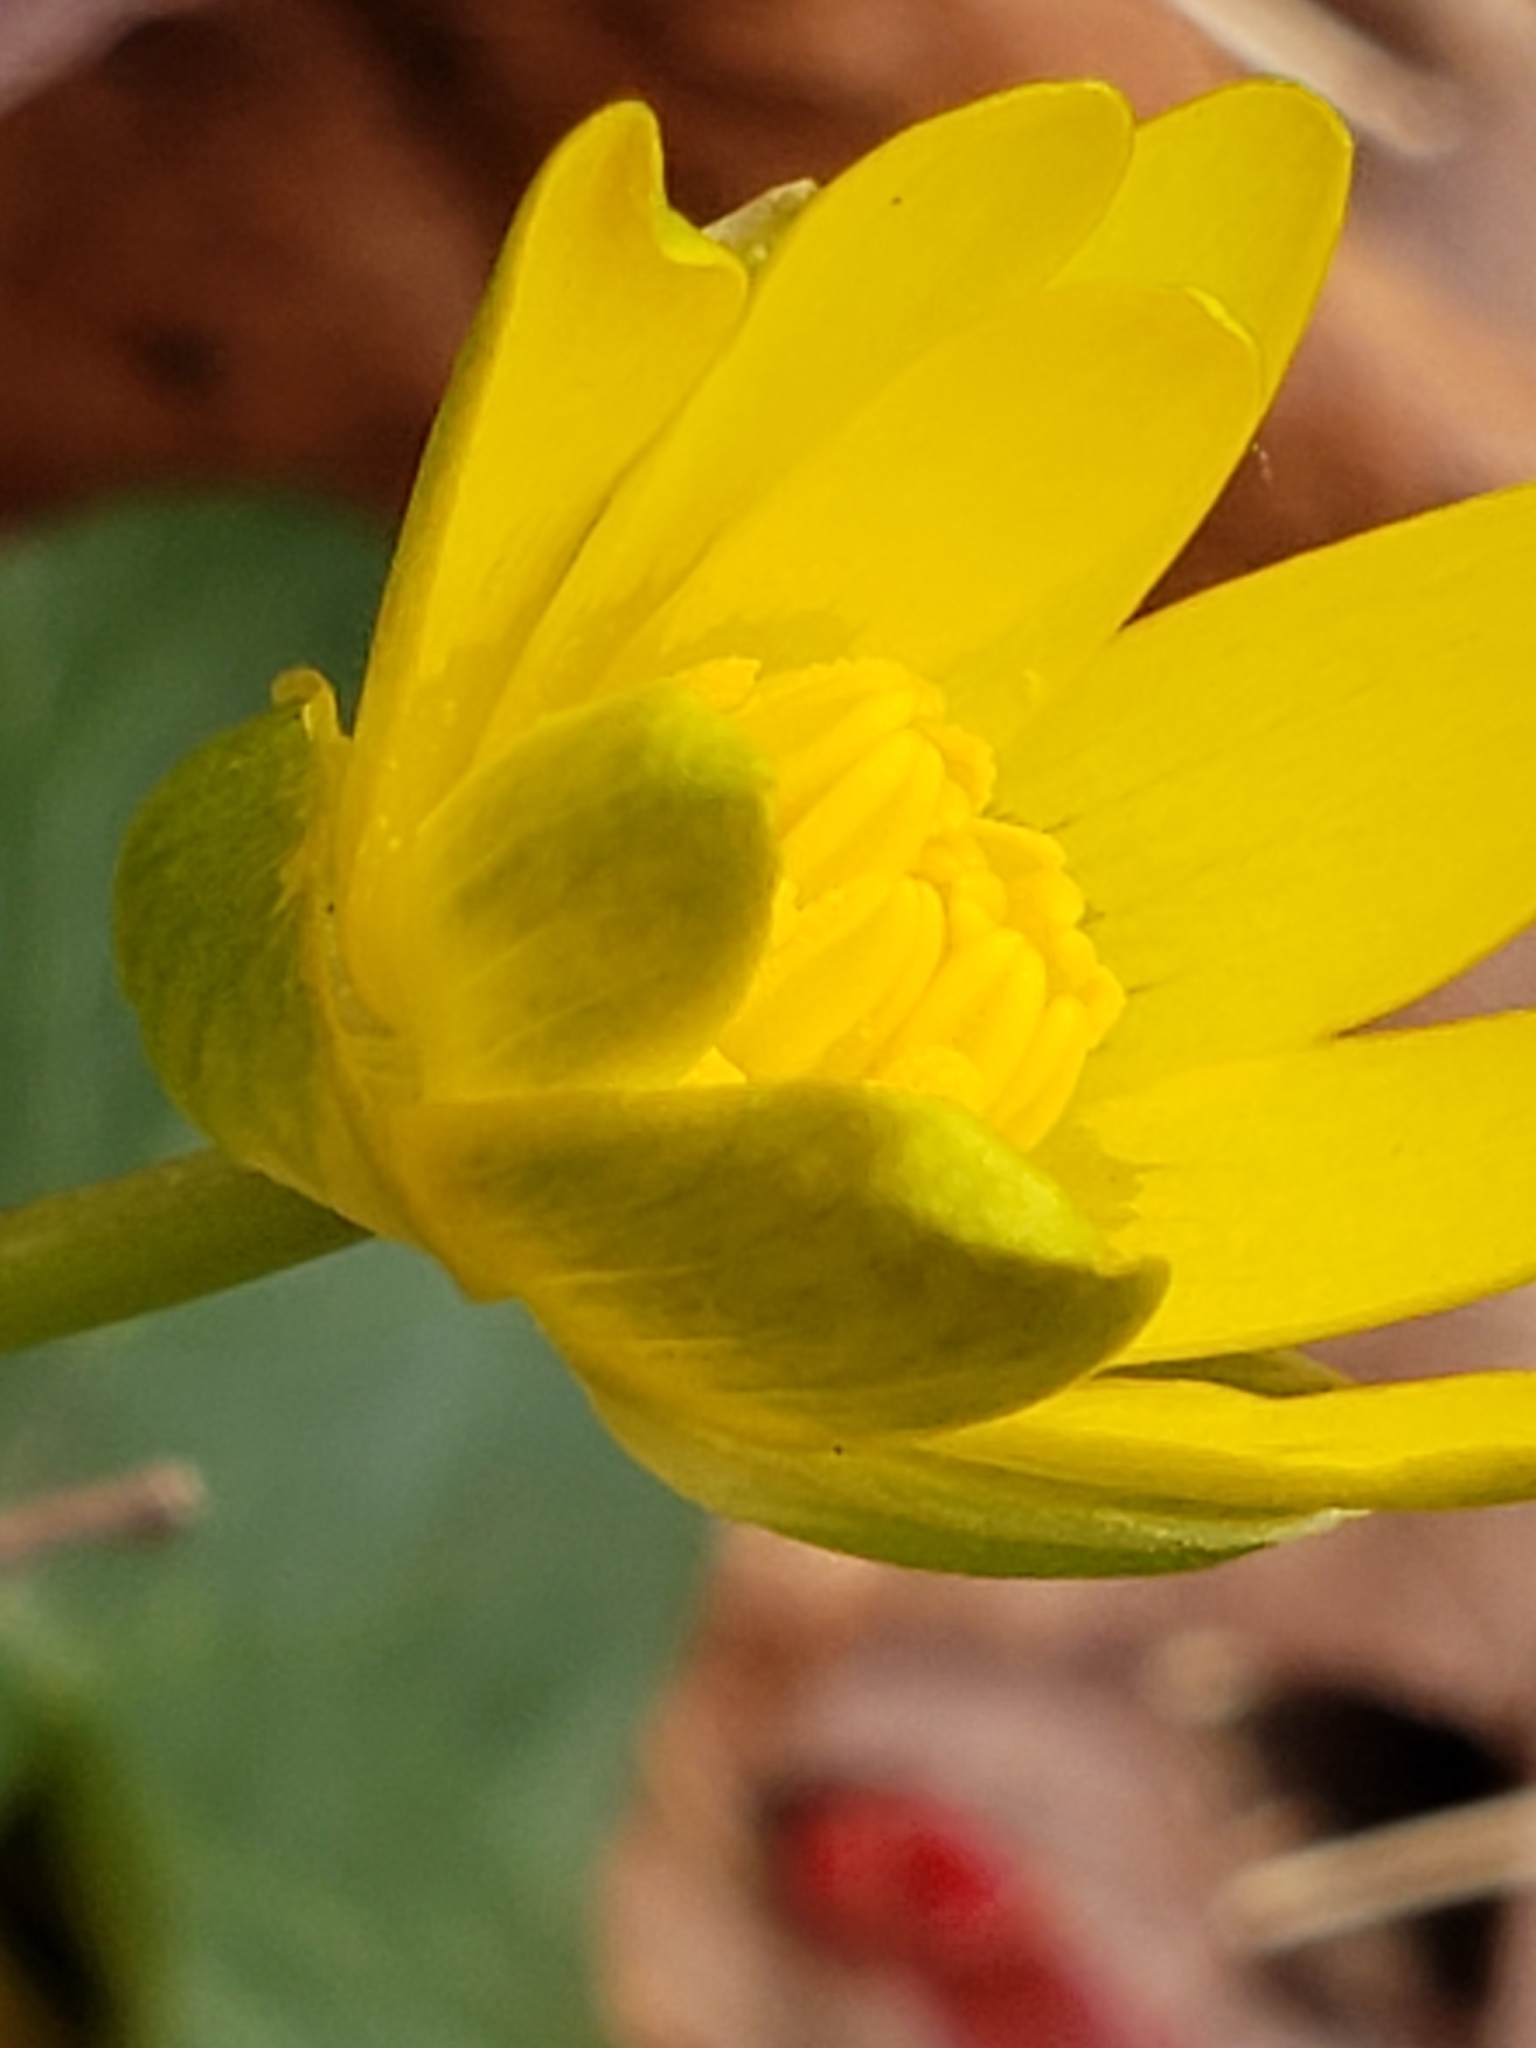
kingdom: Plantae
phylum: Tracheophyta
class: Magnoliopsida
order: Ranunculales
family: Ranunculaceae
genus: Ficaria
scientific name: Ficaria verna
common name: Lesser celandine
